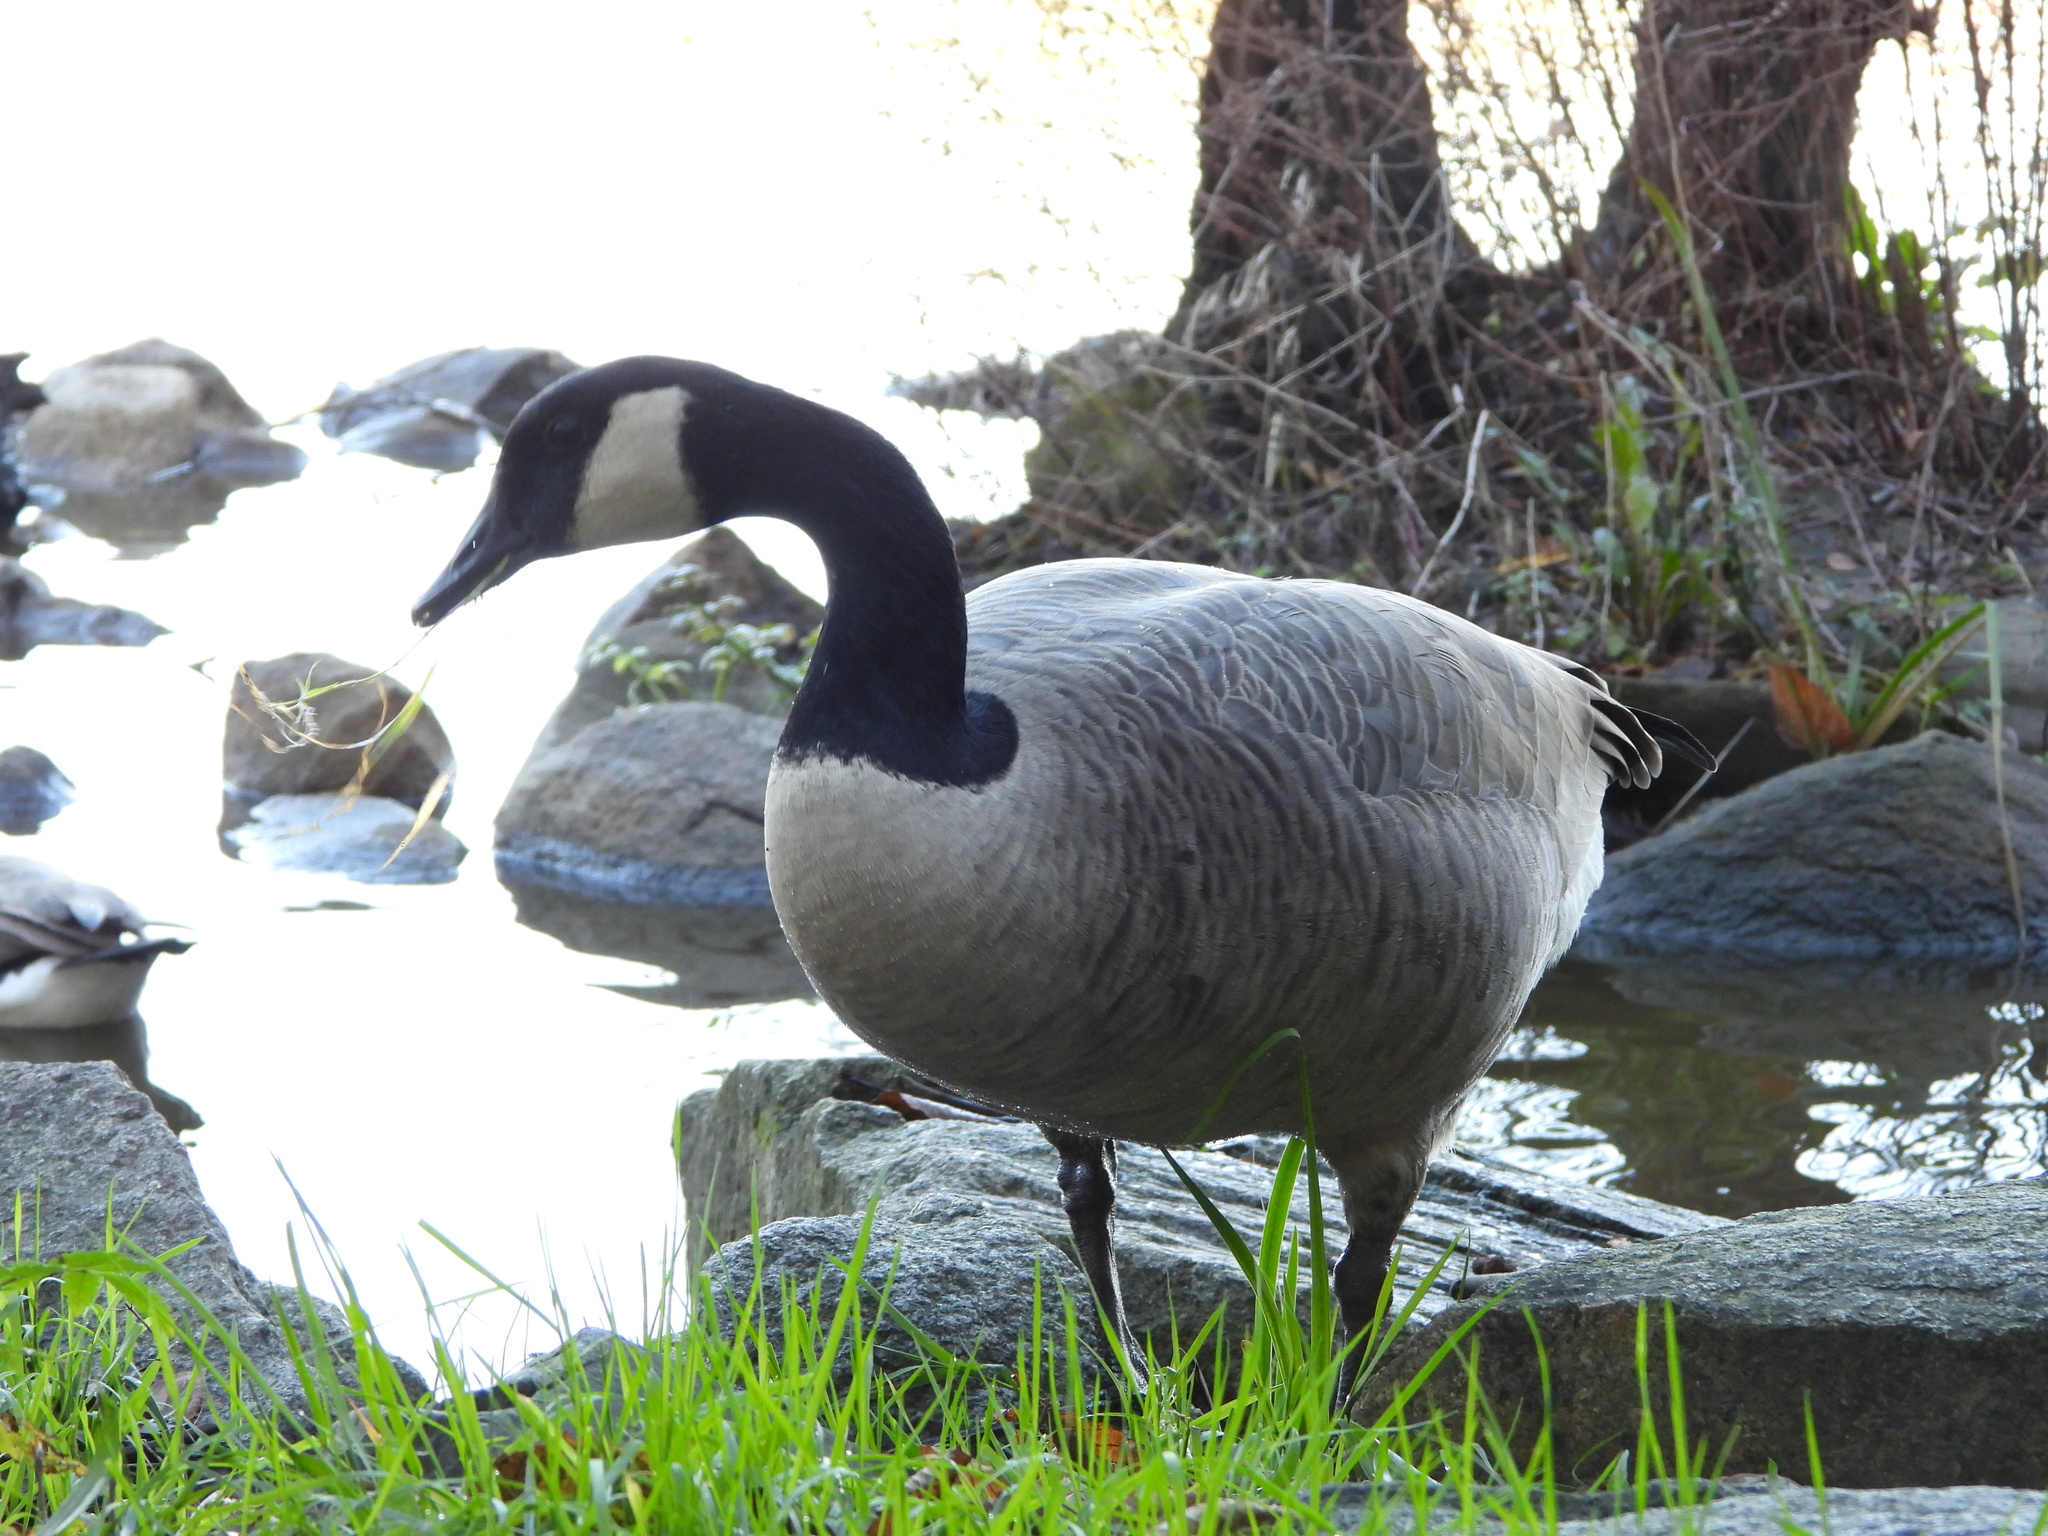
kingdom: Animalia
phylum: Chordata
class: Aves
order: Anseriformes
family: Anatidae
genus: Branta
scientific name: Branta canadensis
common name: Canada goose
